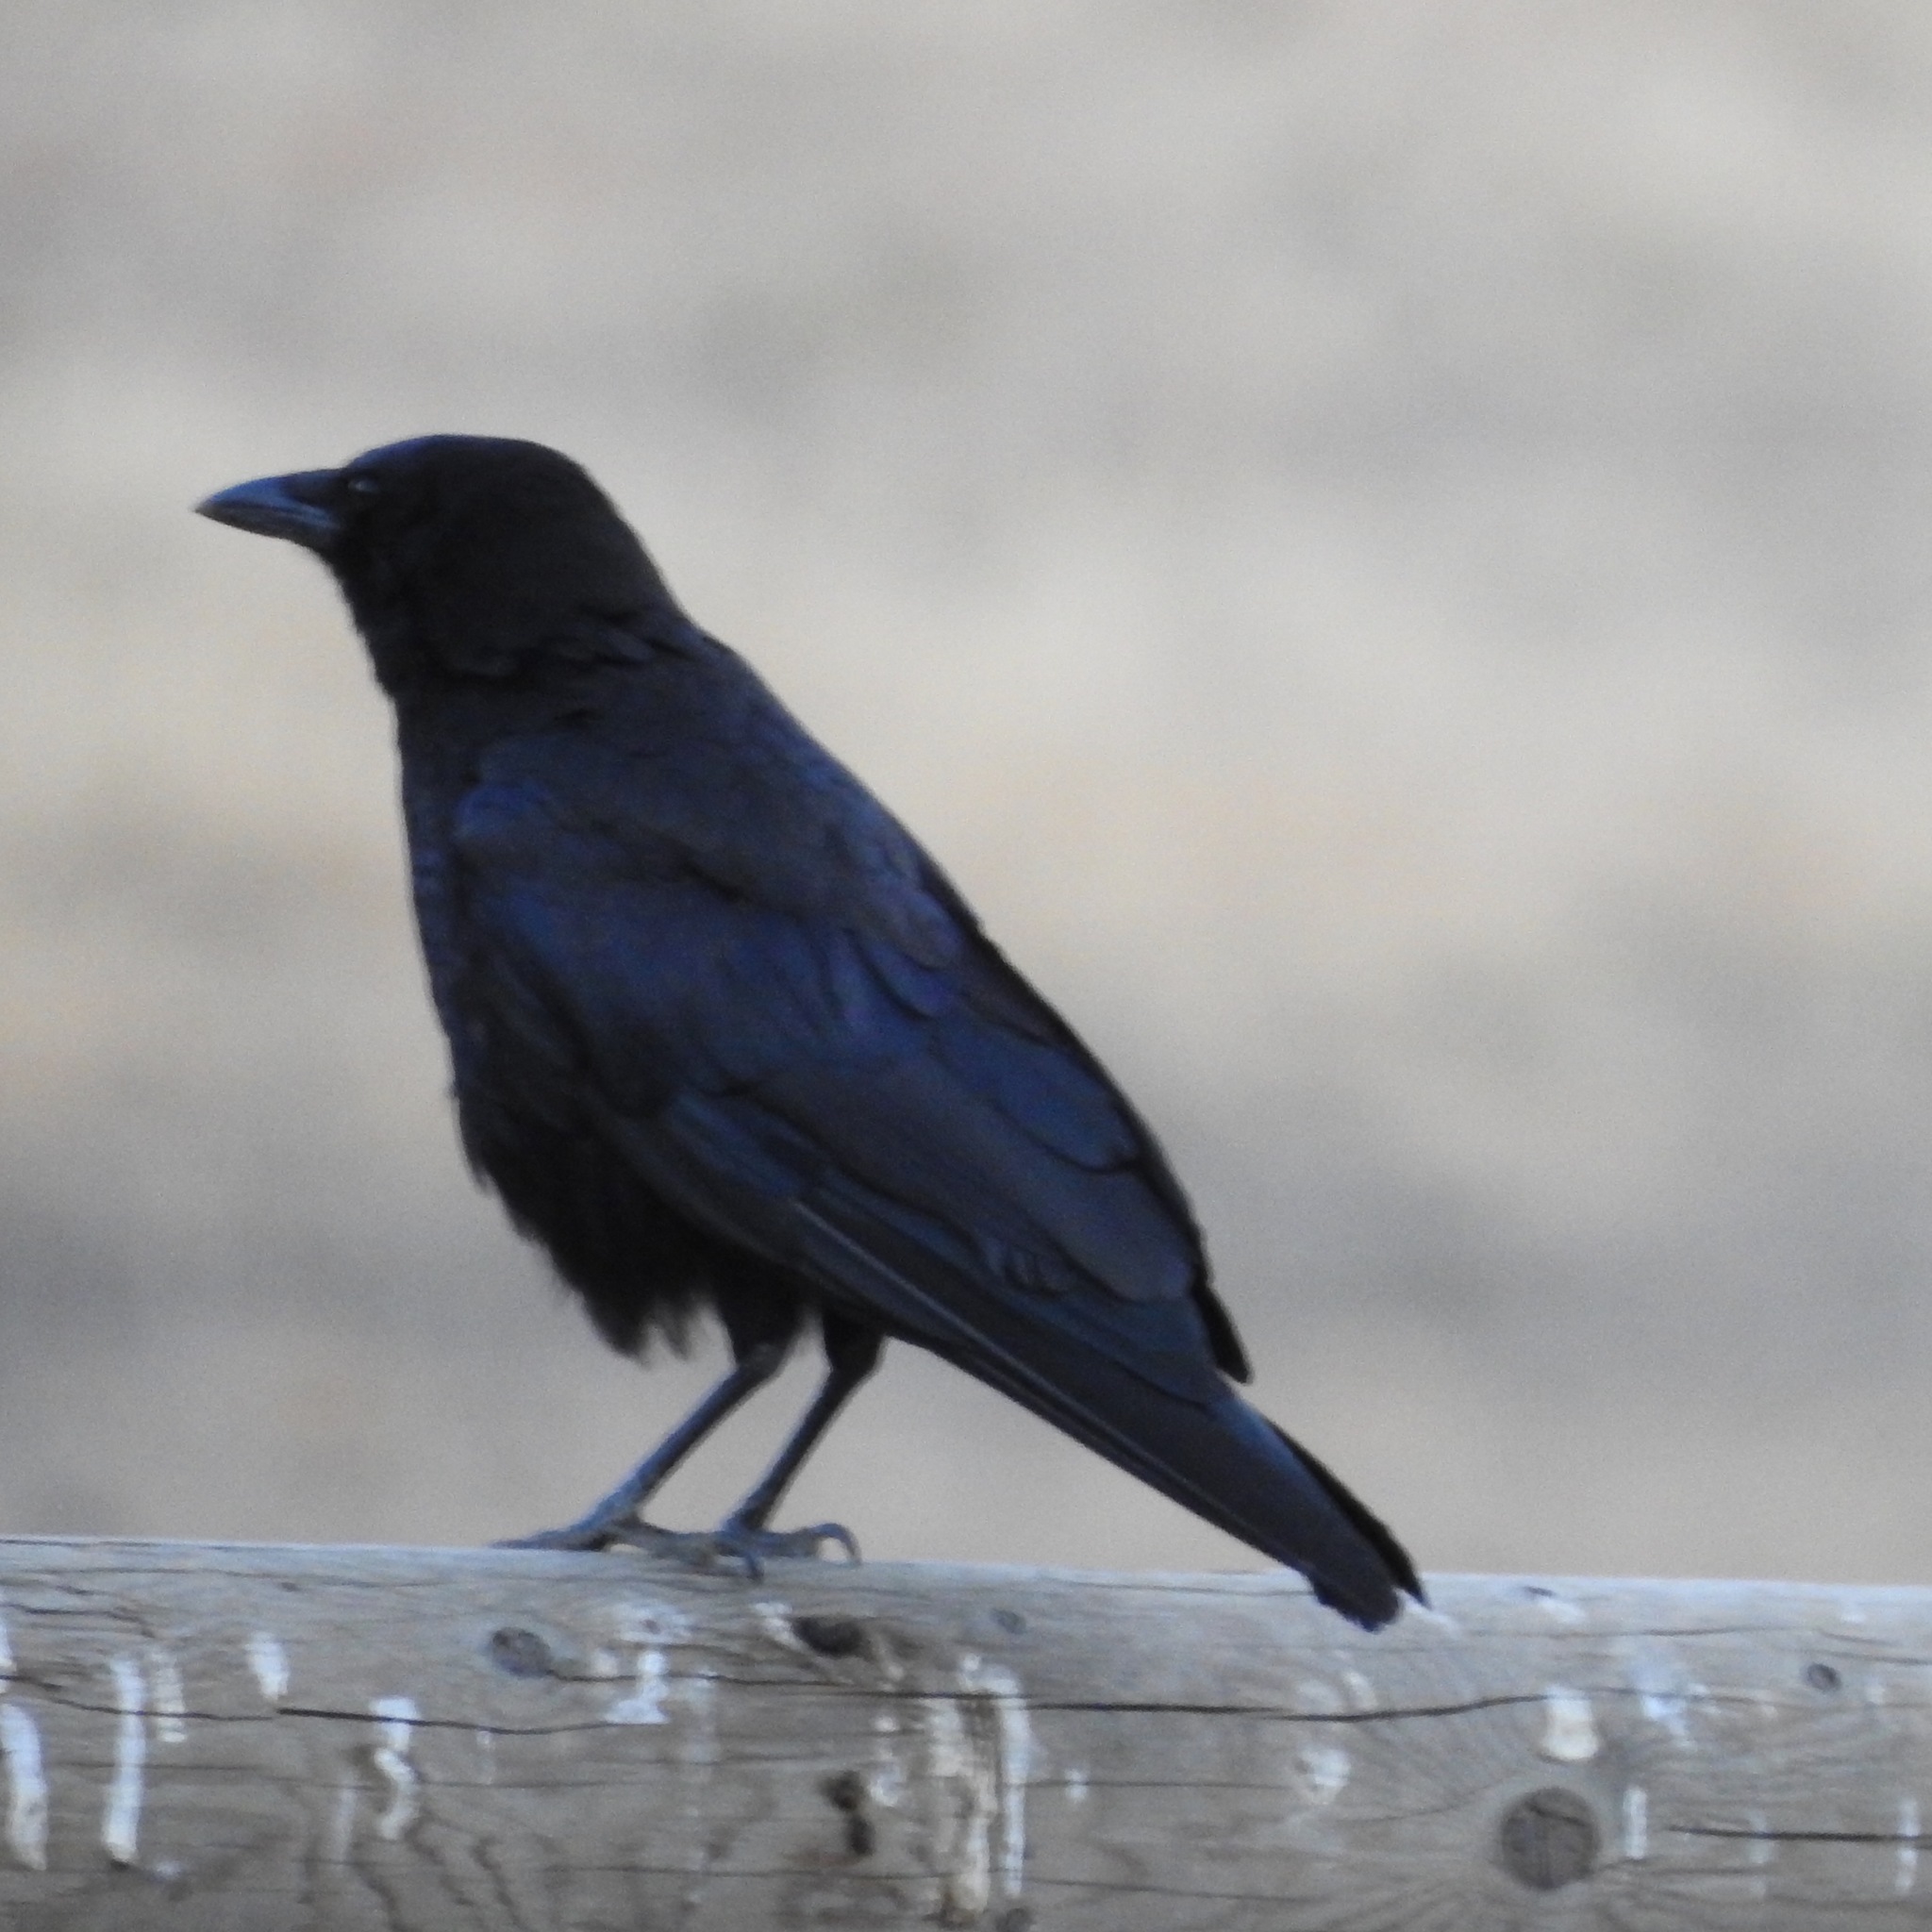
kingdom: Animalia
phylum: Chordata
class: Aves
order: Passeriformes
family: Corvidae
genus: Corvus
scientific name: Corvus brachyrhynchos
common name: American crow
